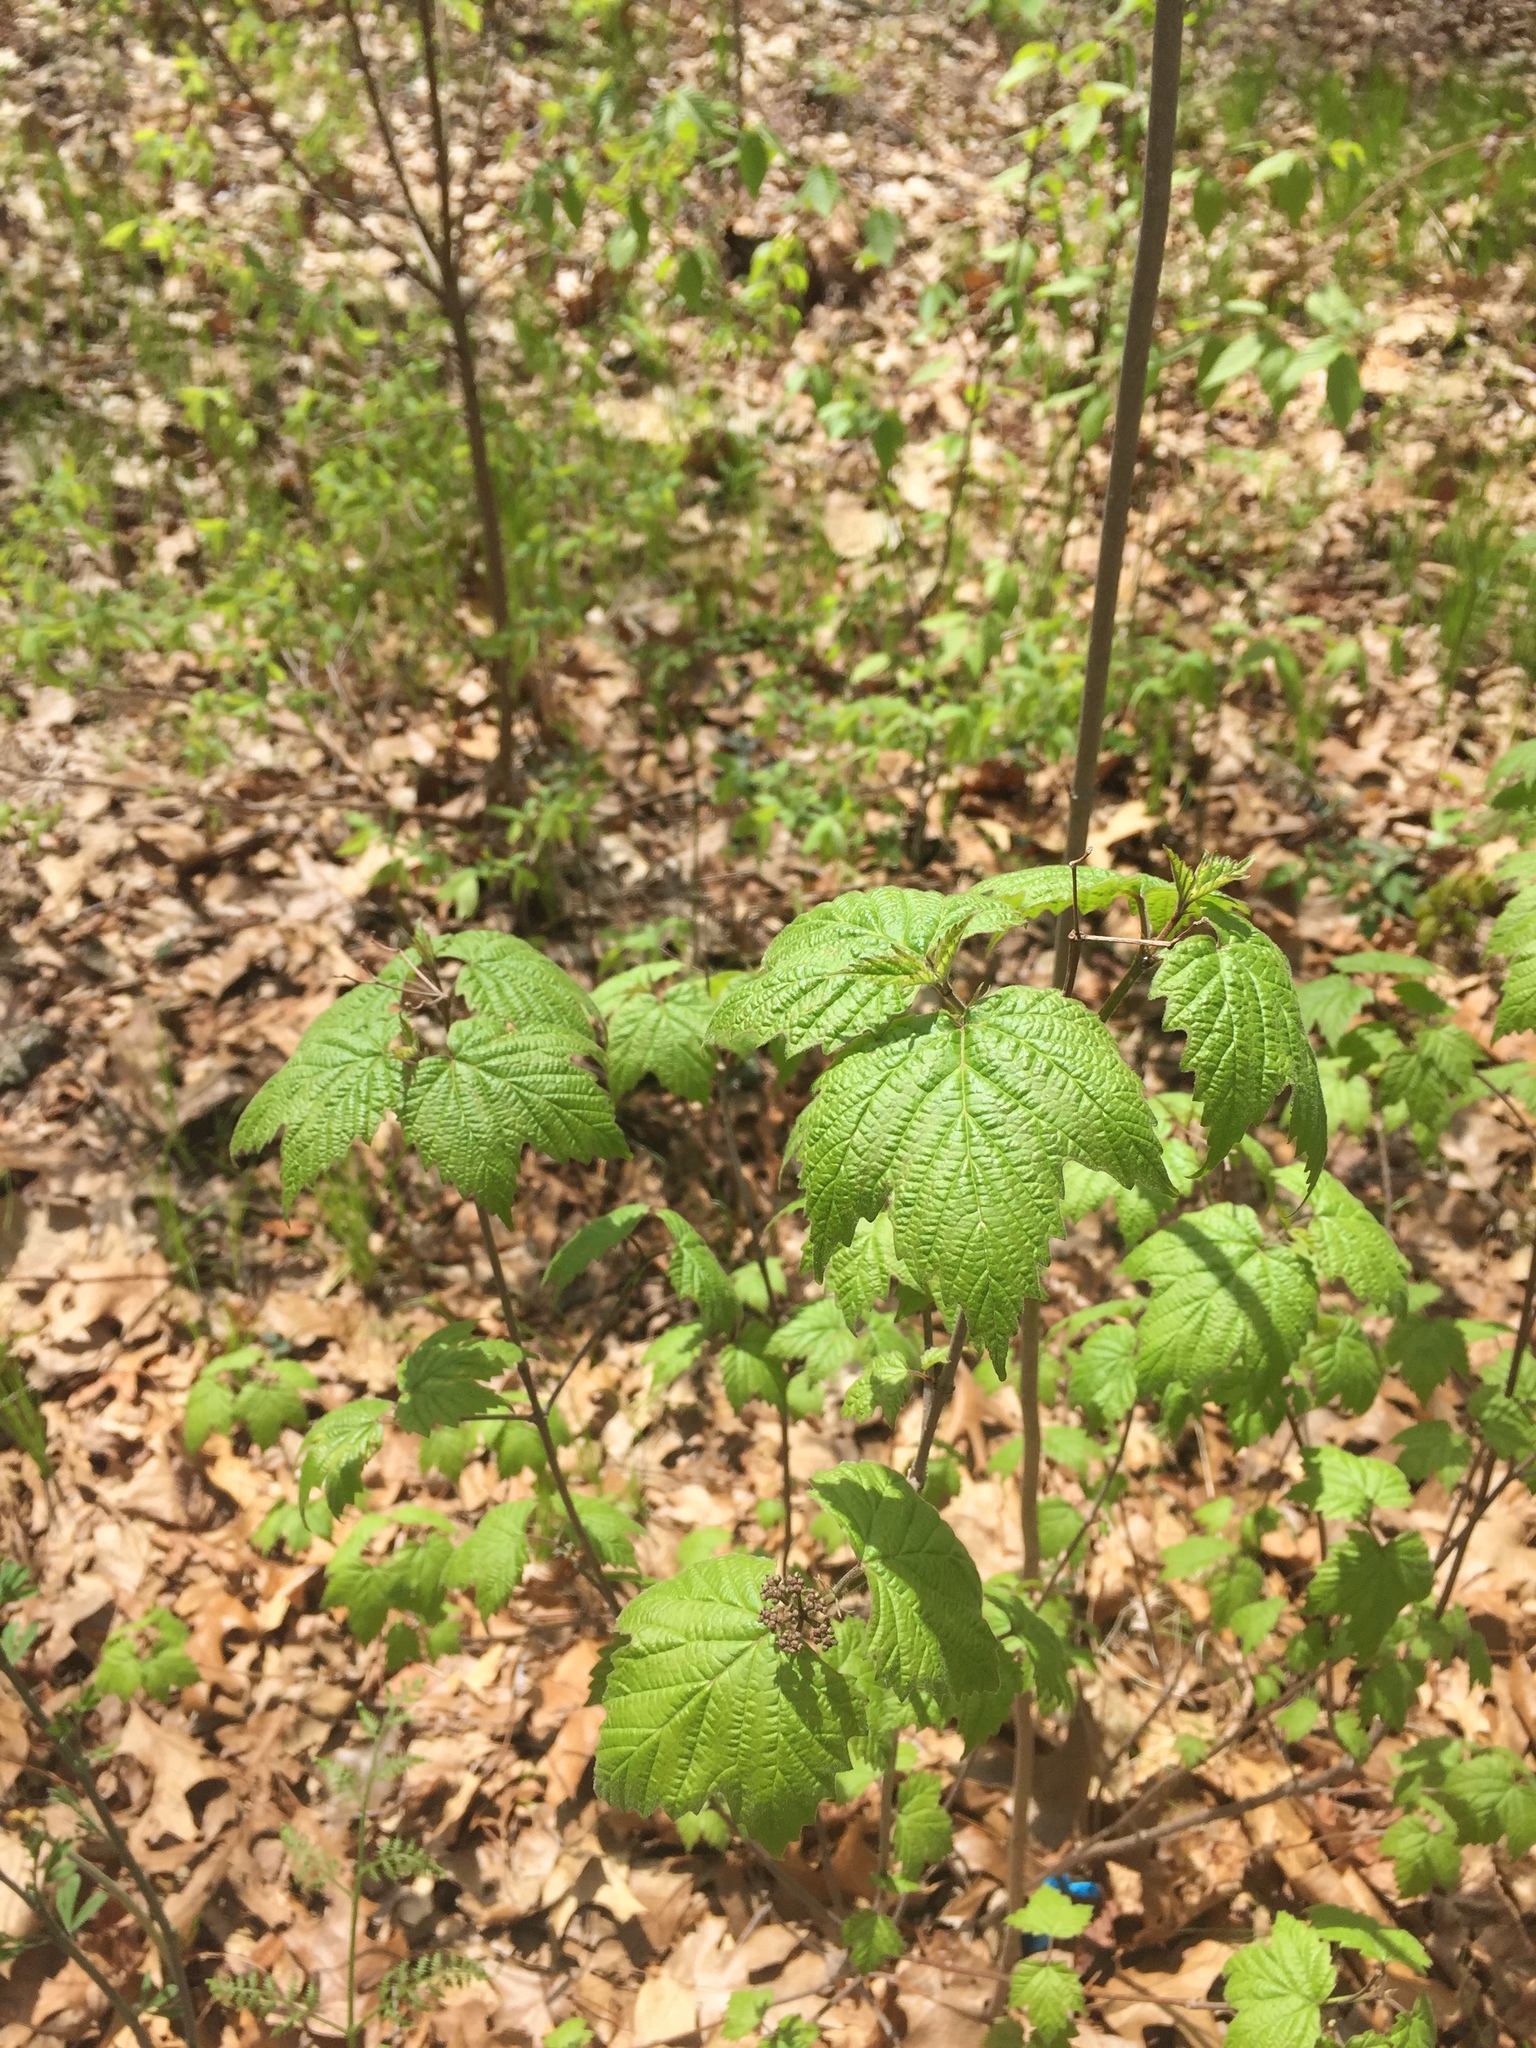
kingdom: Plantae
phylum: Tracheophyta
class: Magnoliopsida
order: Dipsacales
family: Viburnaceae
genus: Viburnum
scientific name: Viburnum acerifolium
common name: Dockmackie
